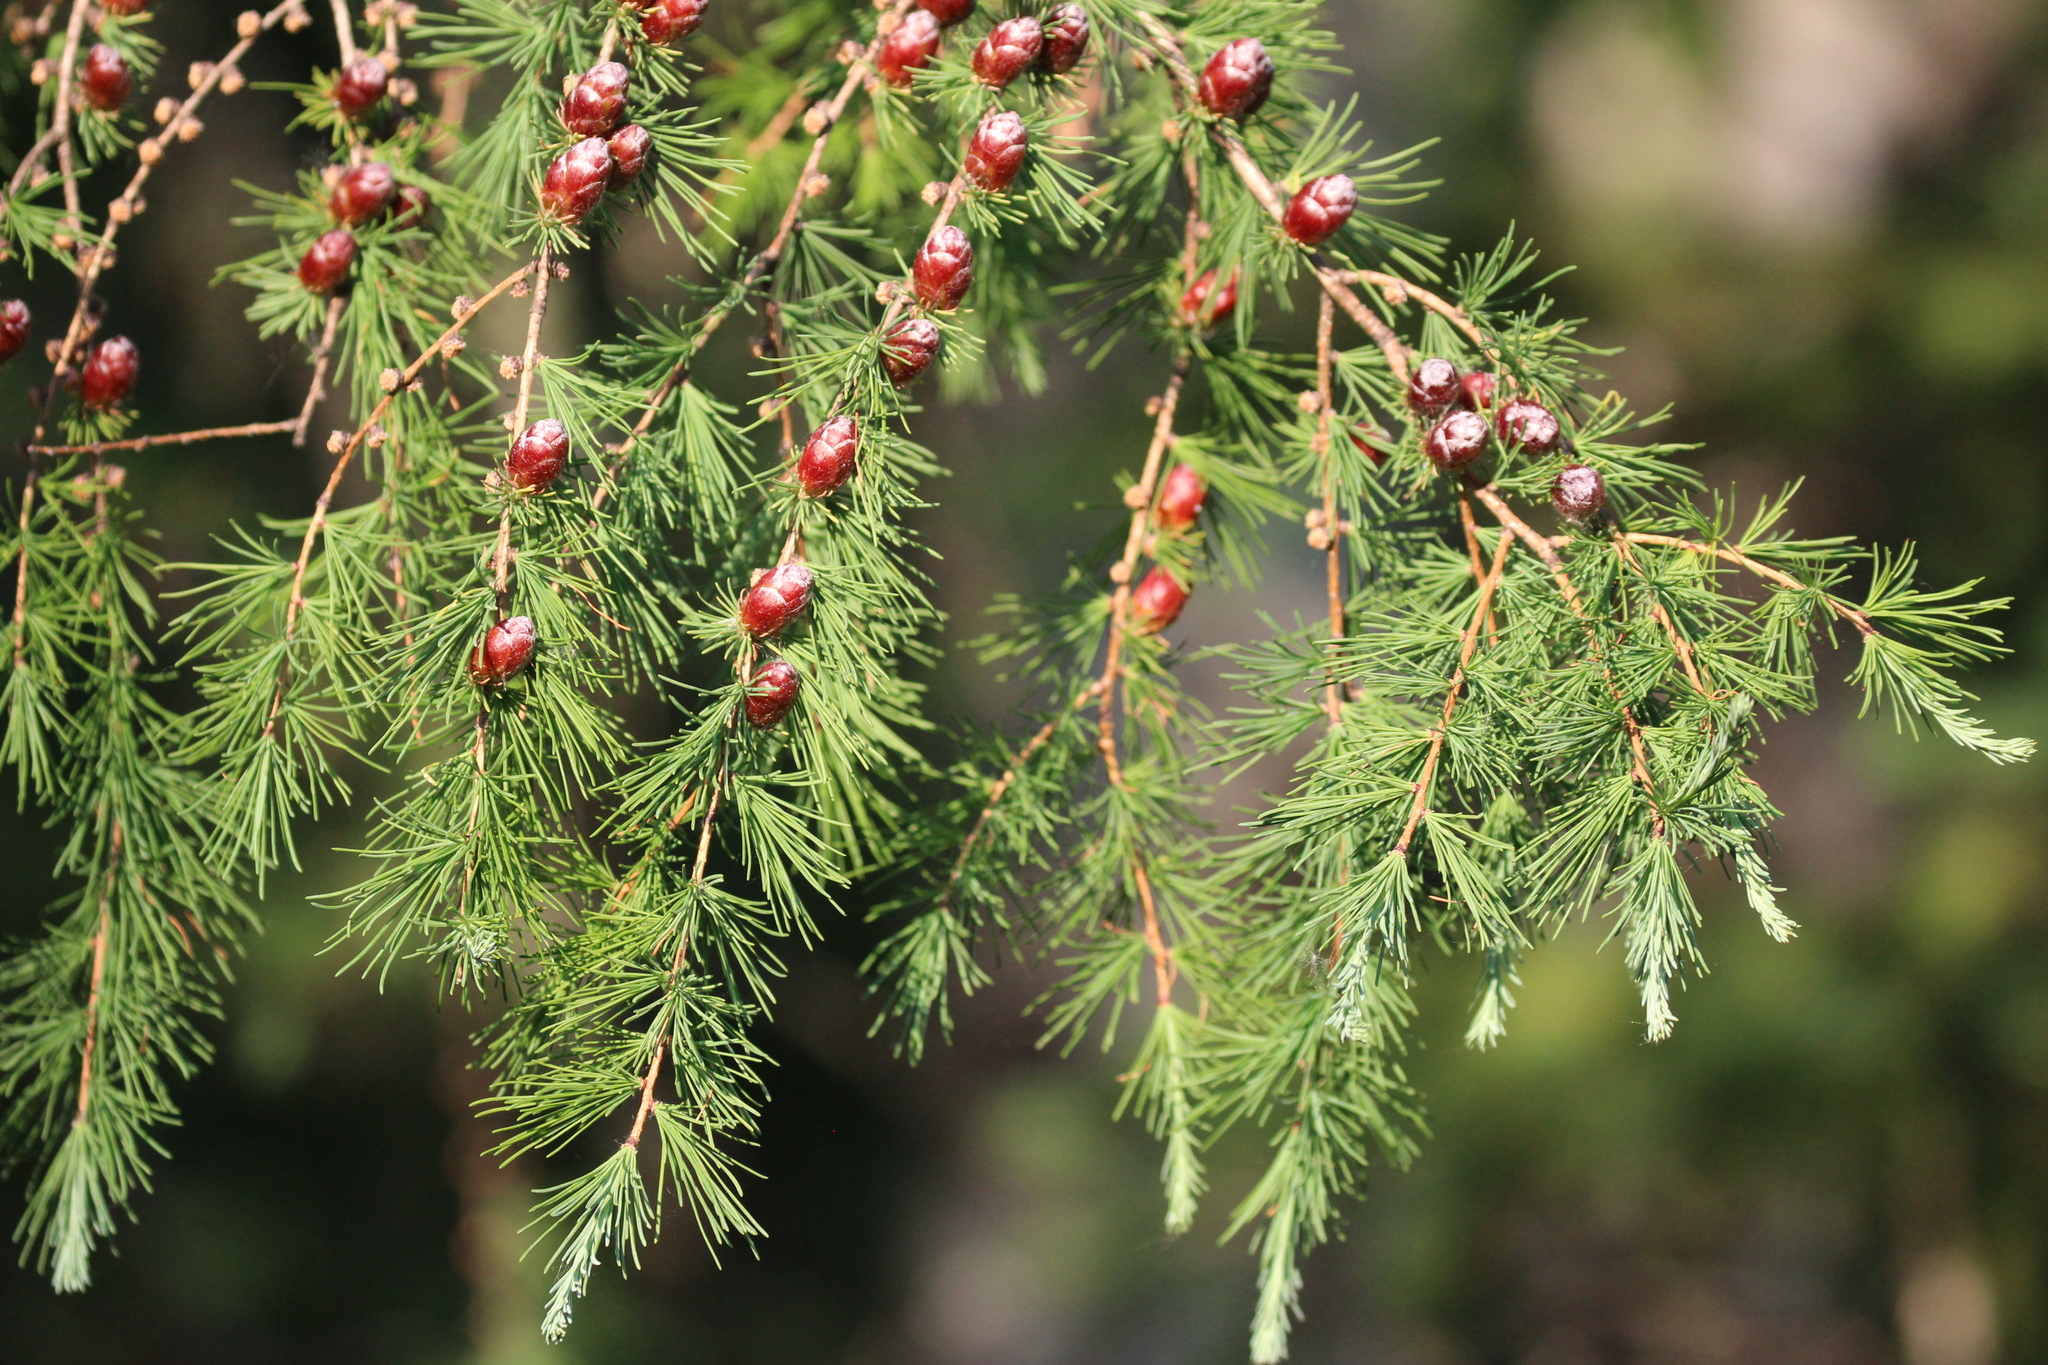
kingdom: Plantae
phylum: Tracheophyta
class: Pinopsida
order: Pinales
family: Pinaceae
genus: Larix
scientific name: Larix laricina
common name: American larch
